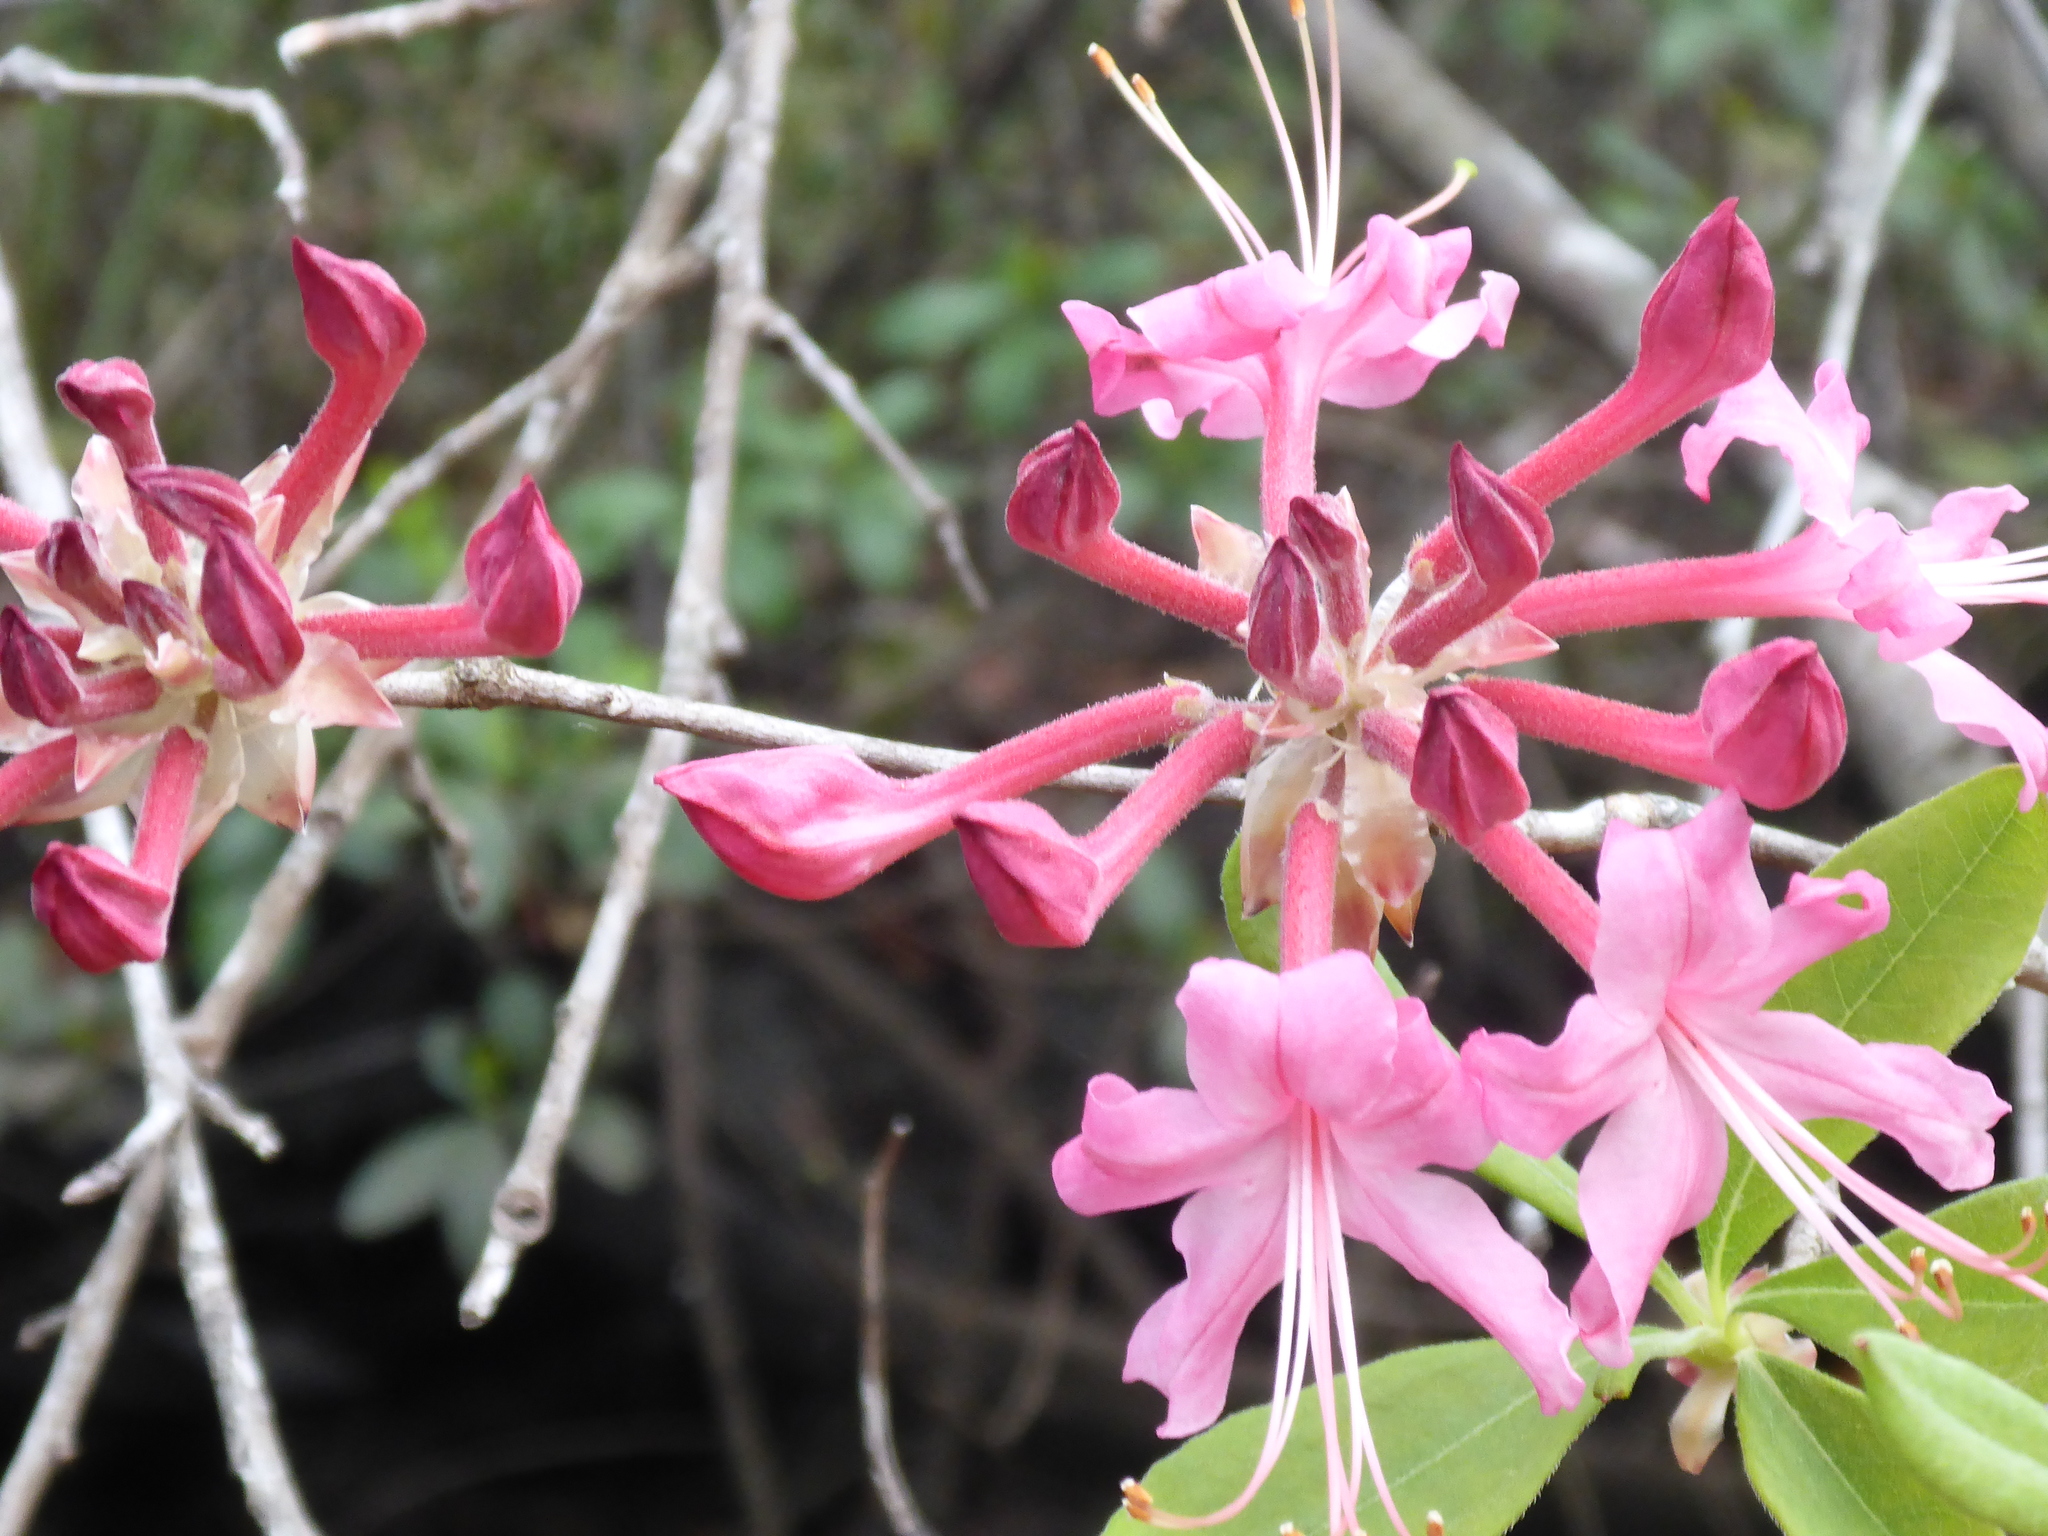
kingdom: Plantae
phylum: Tracheophyta
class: Magnoliopsida
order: Ericales
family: Ericaceae
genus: Rhododendron
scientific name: Rhododendron canescens
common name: Mountain azalea
